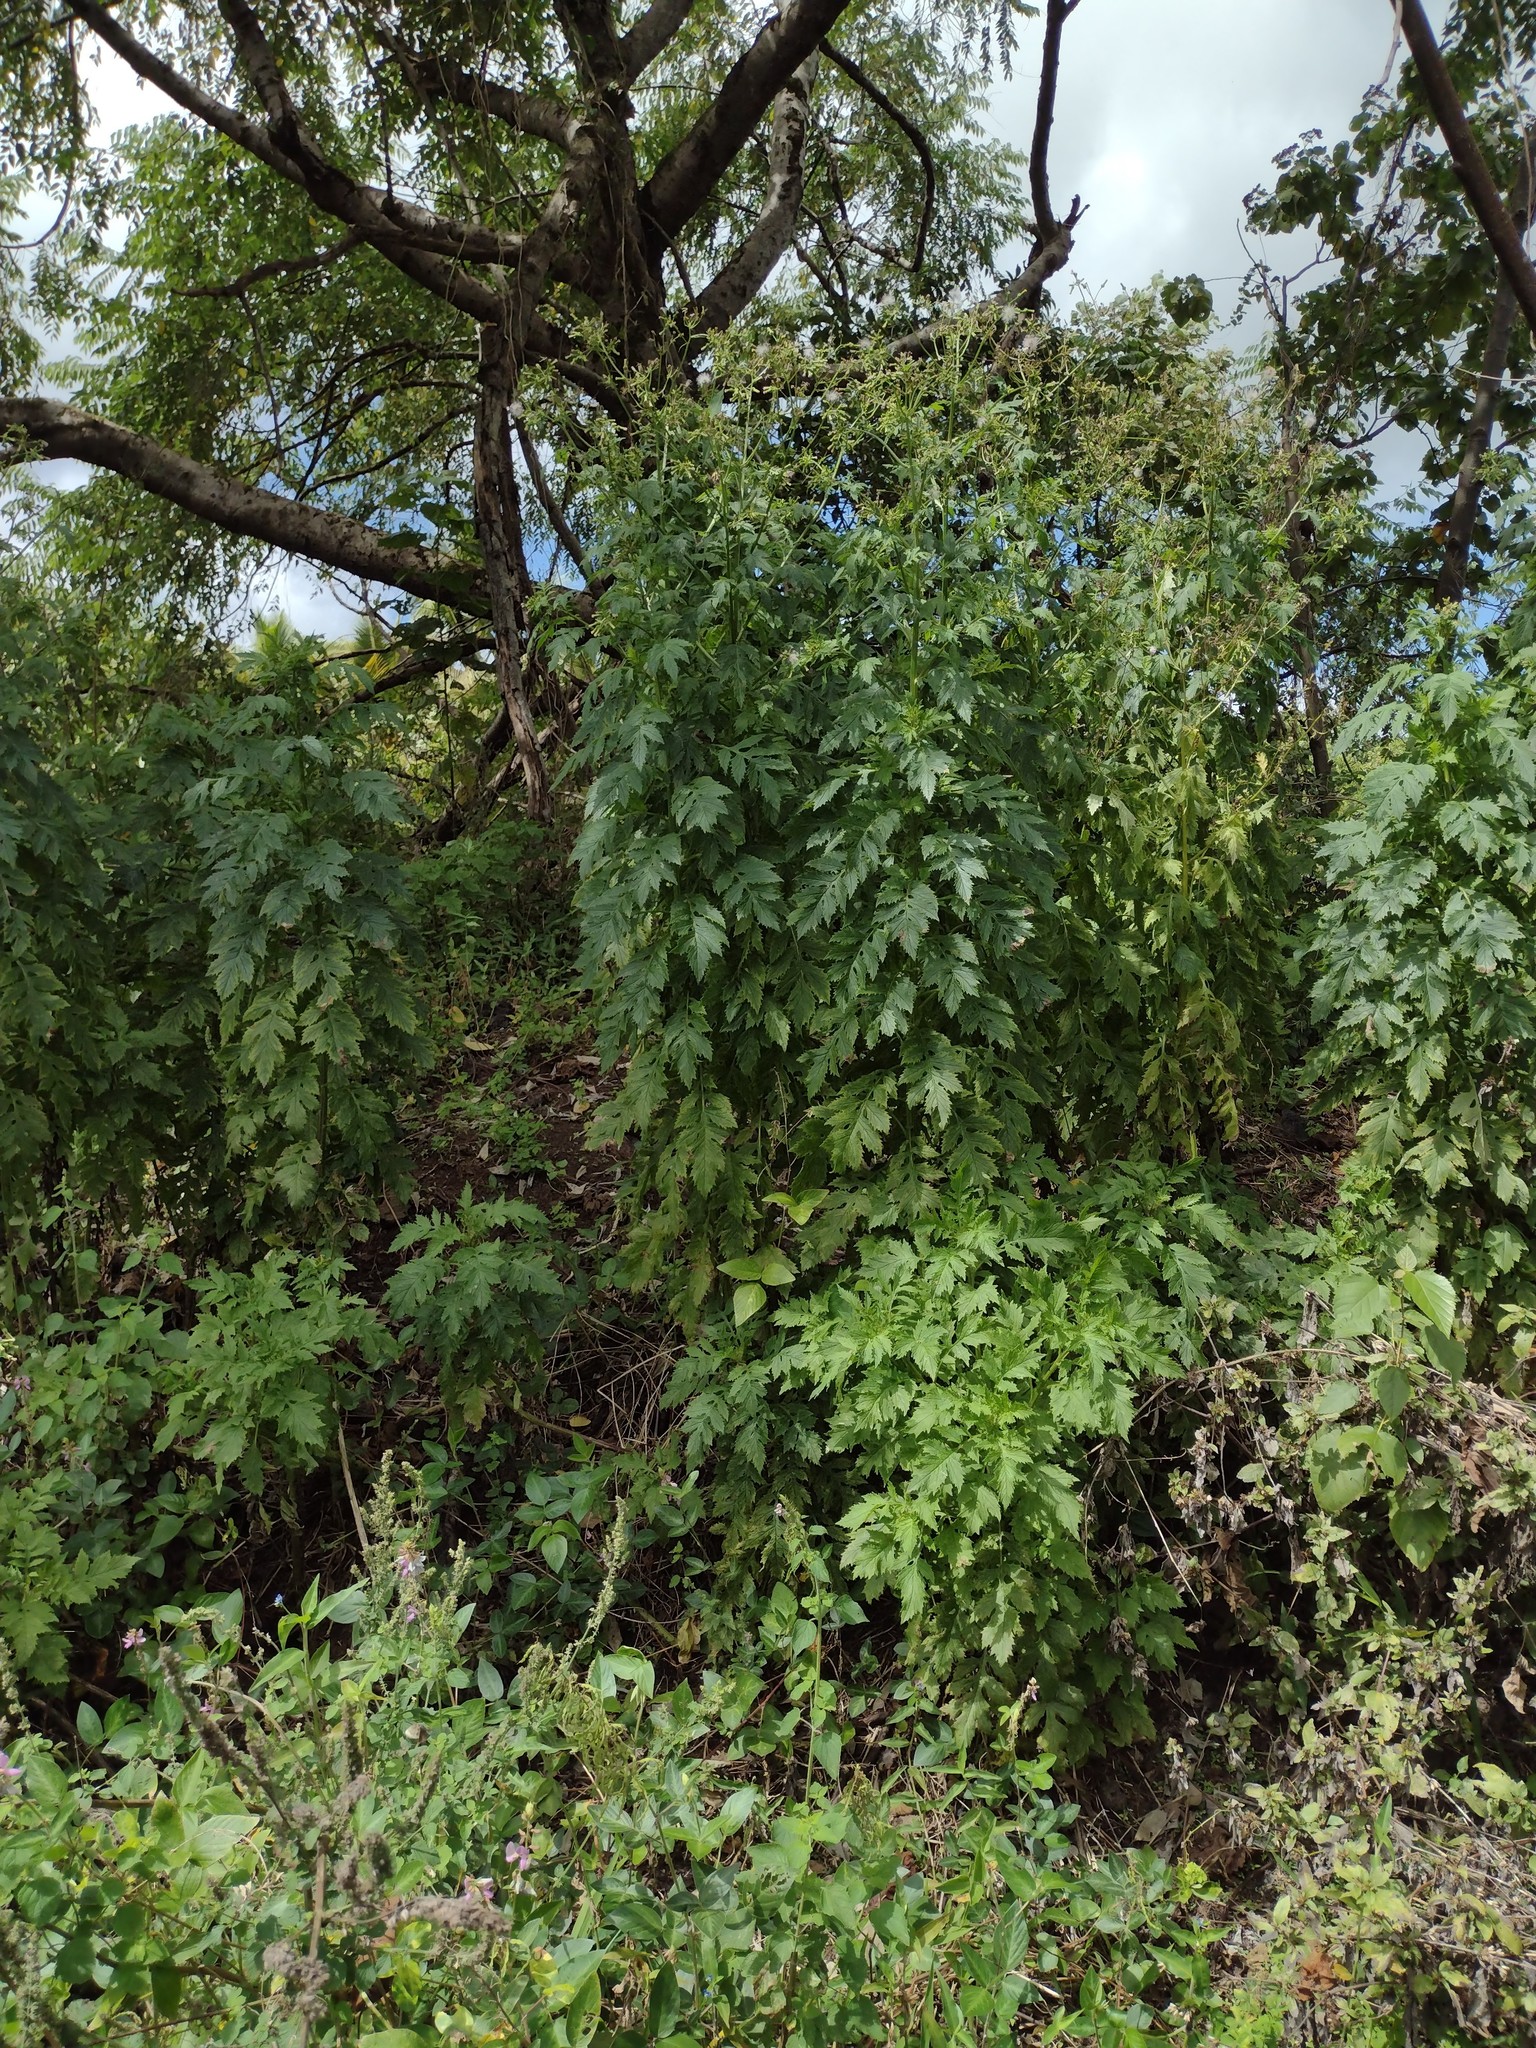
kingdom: Plantae
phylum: Tracheophyta
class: Magnoliopsida
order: Asterales
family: Asteraceae
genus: Erechtites
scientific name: Erechtites valerianifolius
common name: Tropical burnweed
